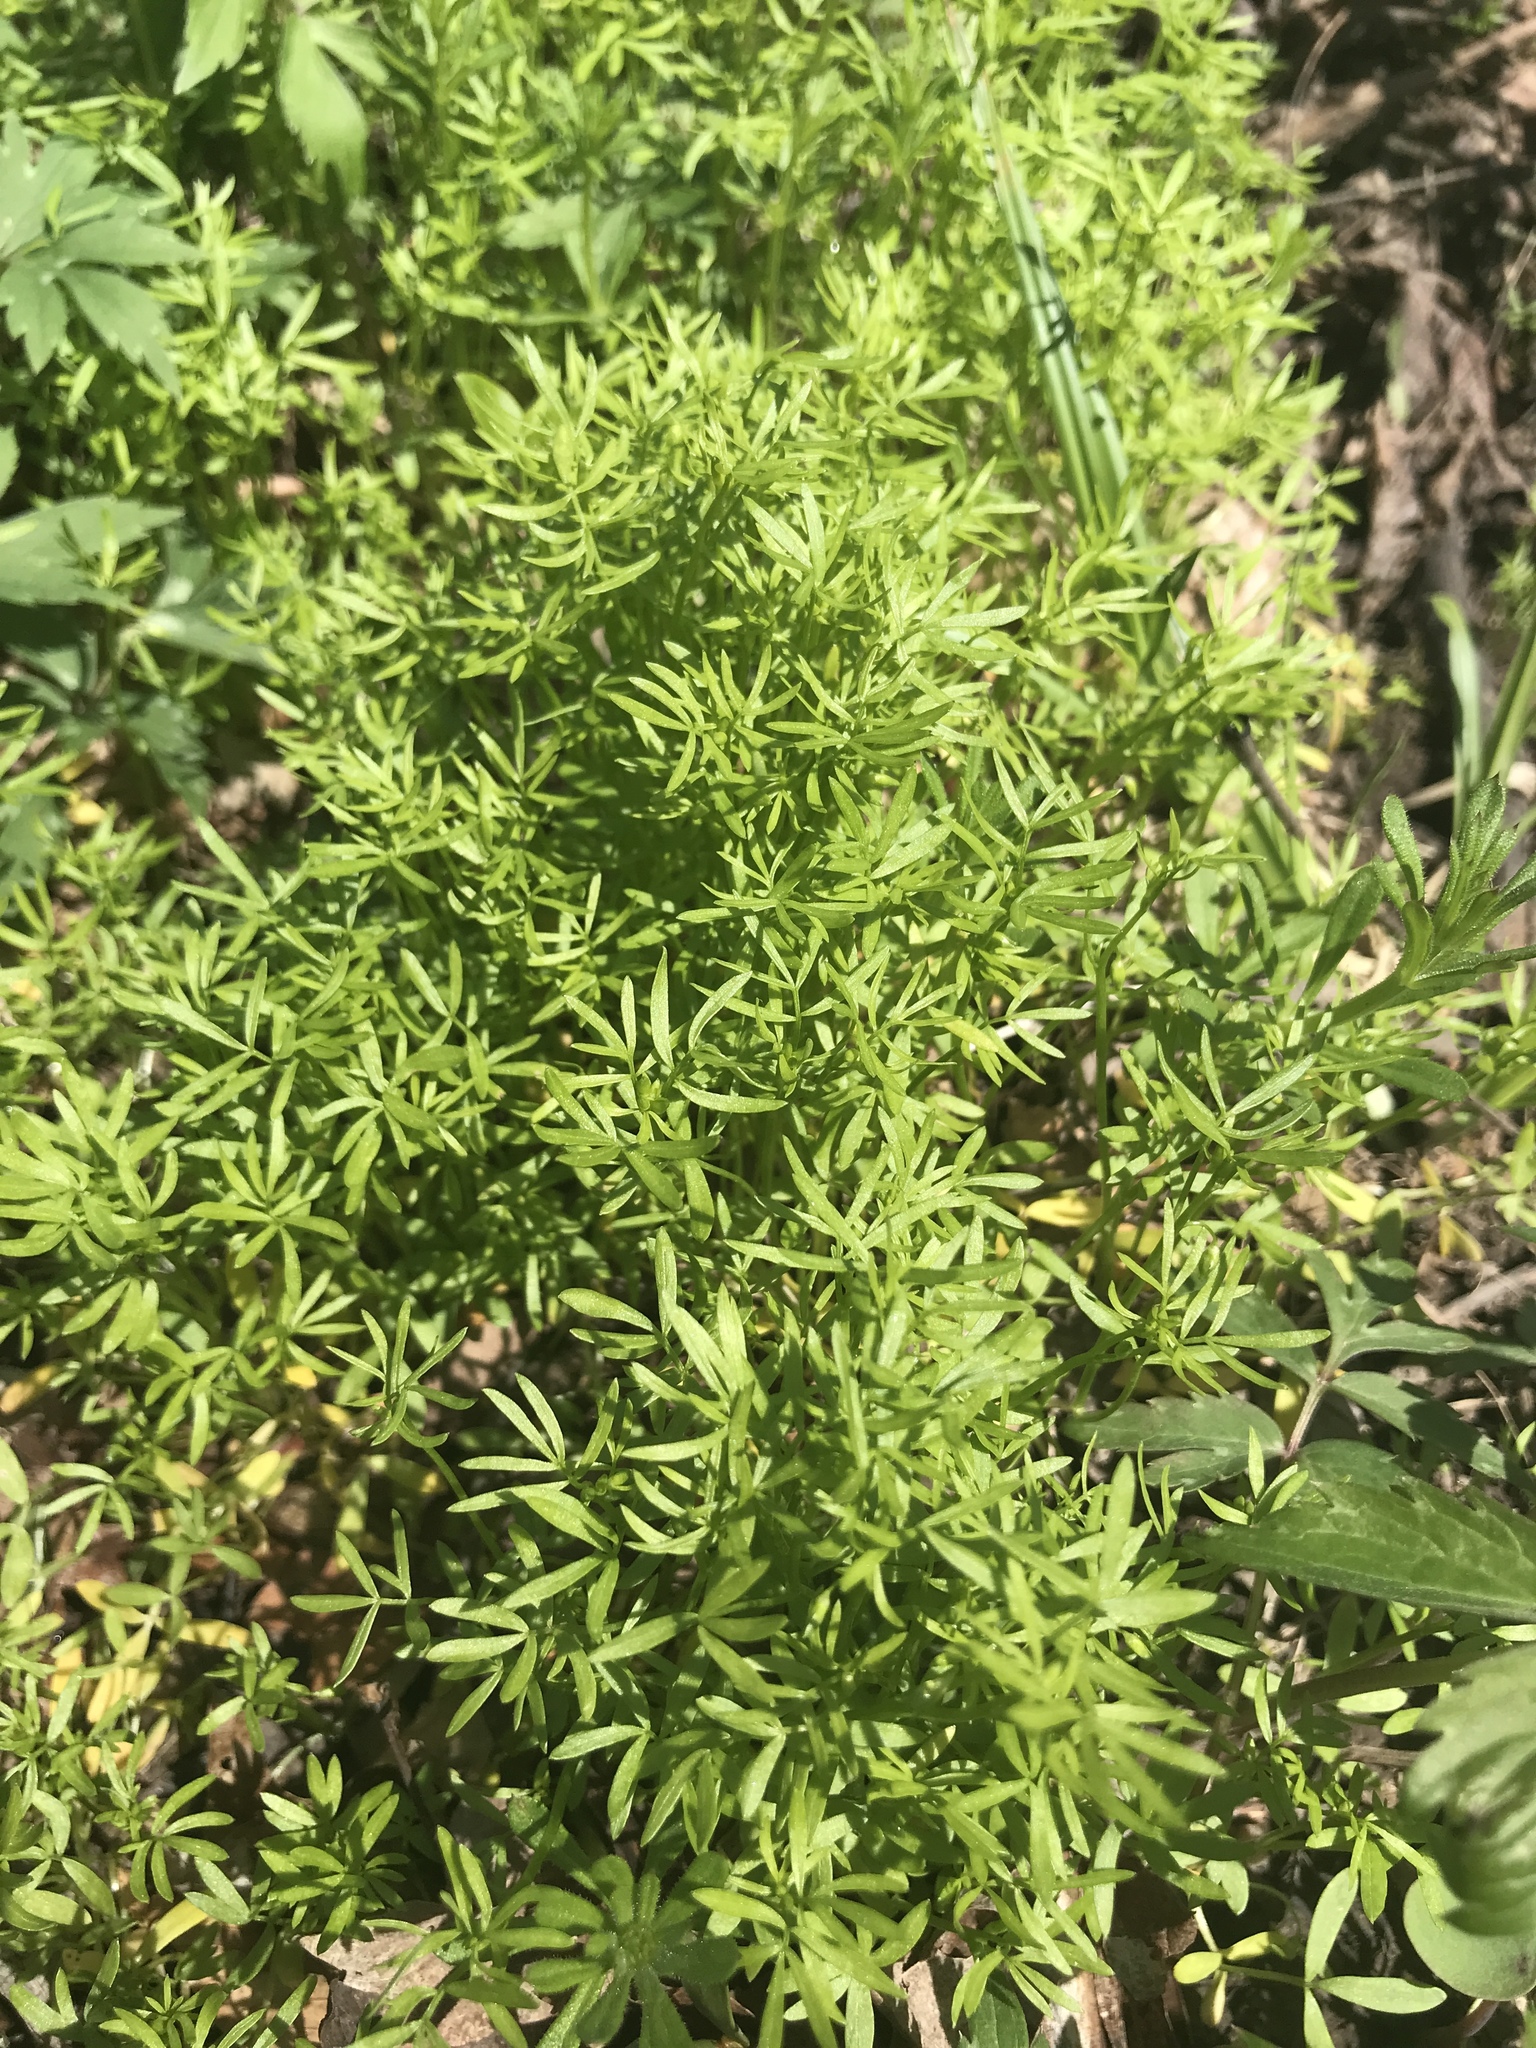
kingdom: Plantae
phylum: Tracheophyta
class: Magnoliopsida
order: Brassicales
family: Limnanthaceae
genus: Floerkea
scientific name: Floerkea proserpinacoides
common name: False mermaid
